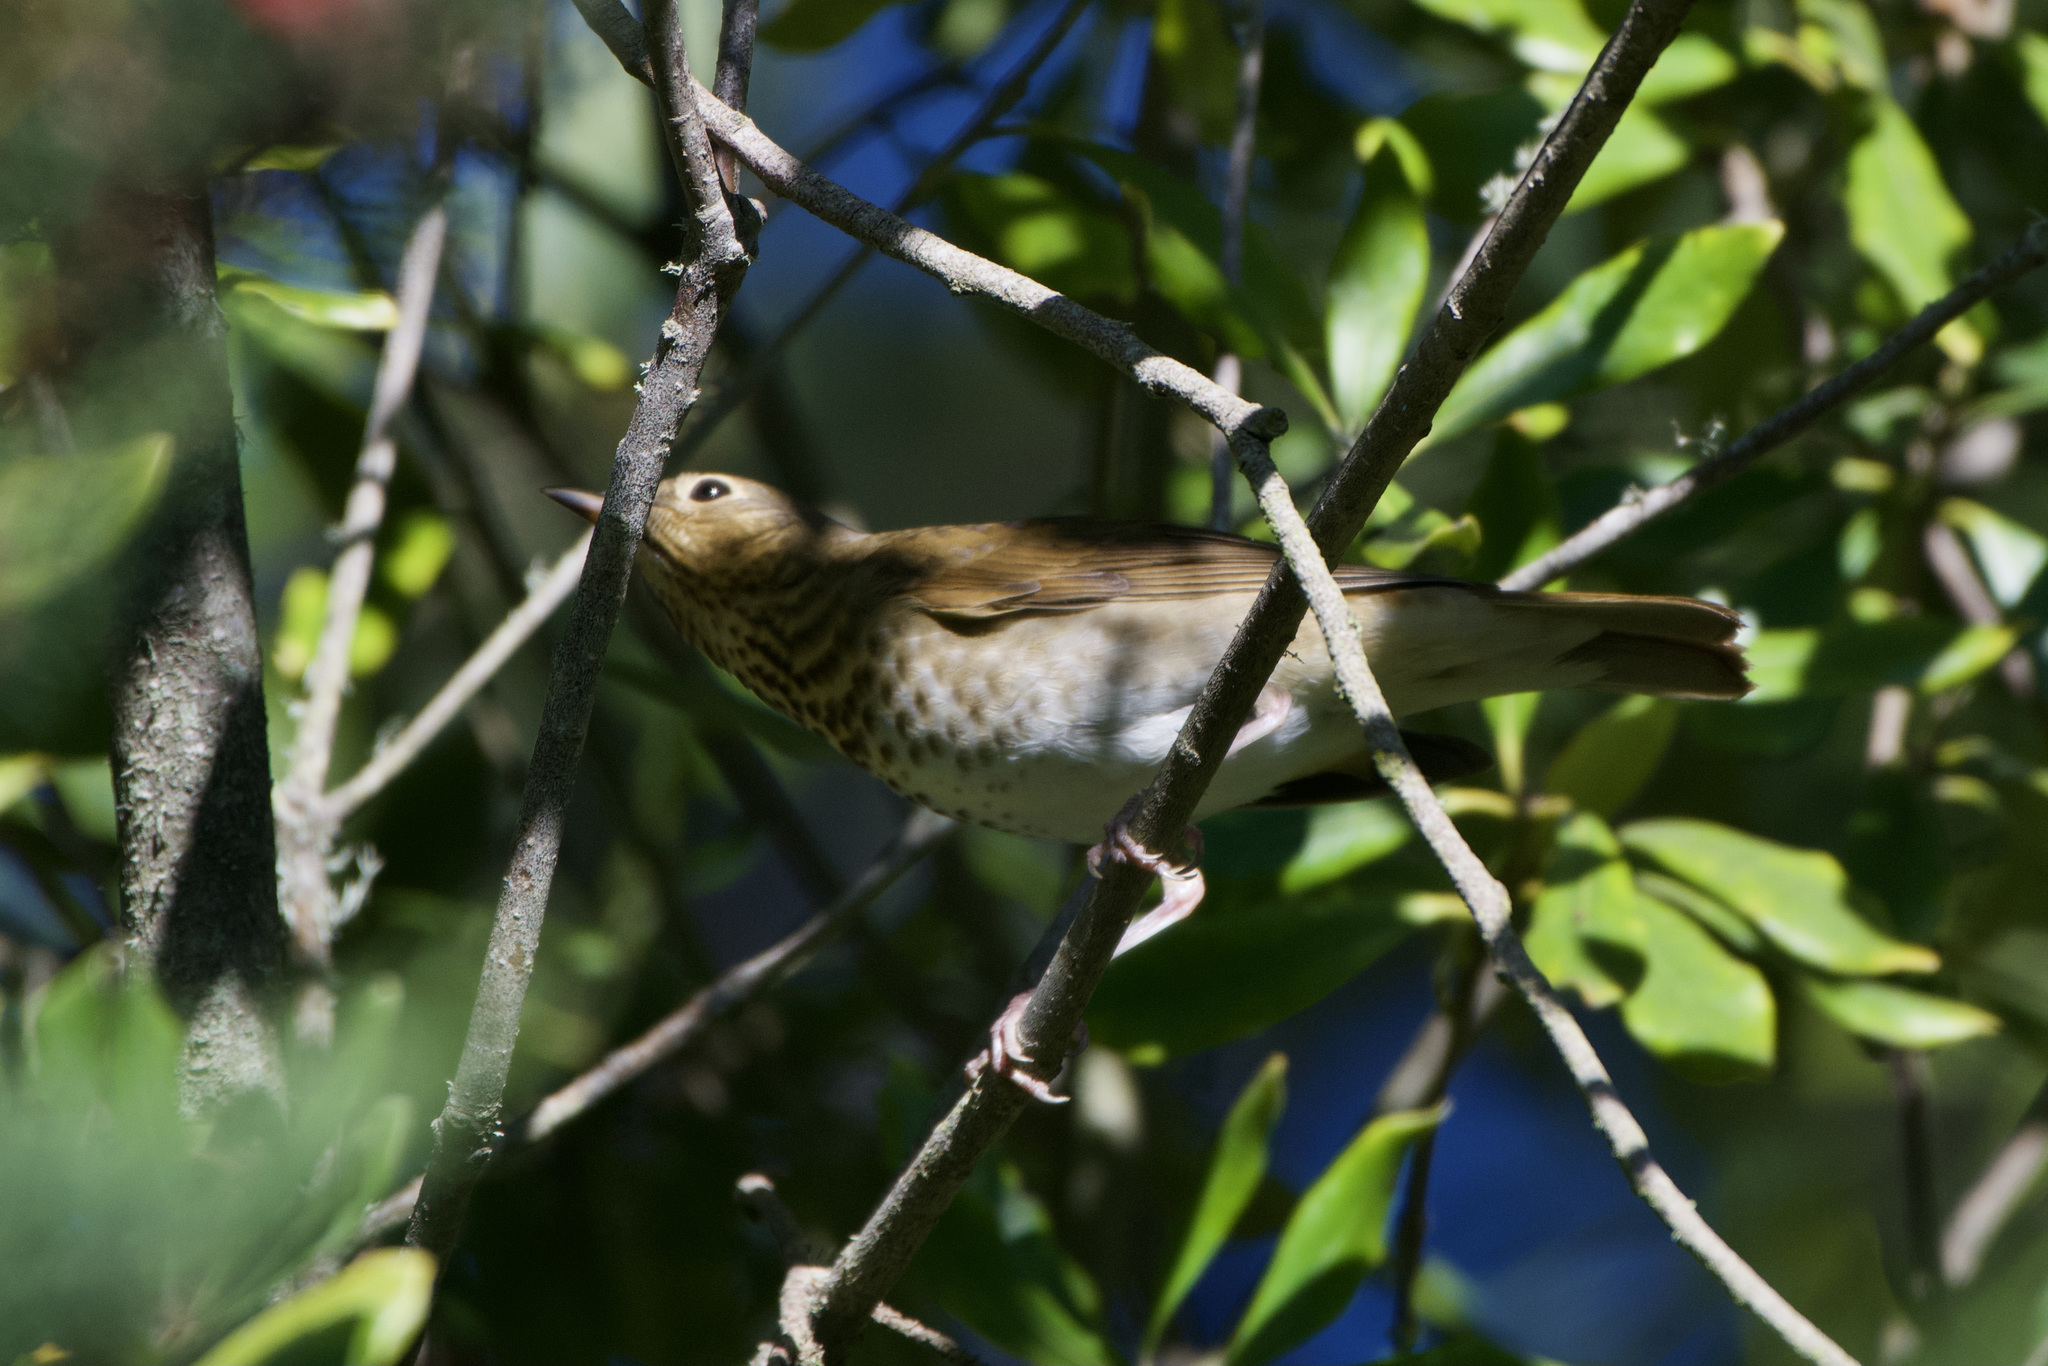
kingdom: Animalia
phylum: Chordata
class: Aves
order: Passeriformes
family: Turdidae
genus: Catharus
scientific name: Catharus ustulatus
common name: Swainson's thrush
